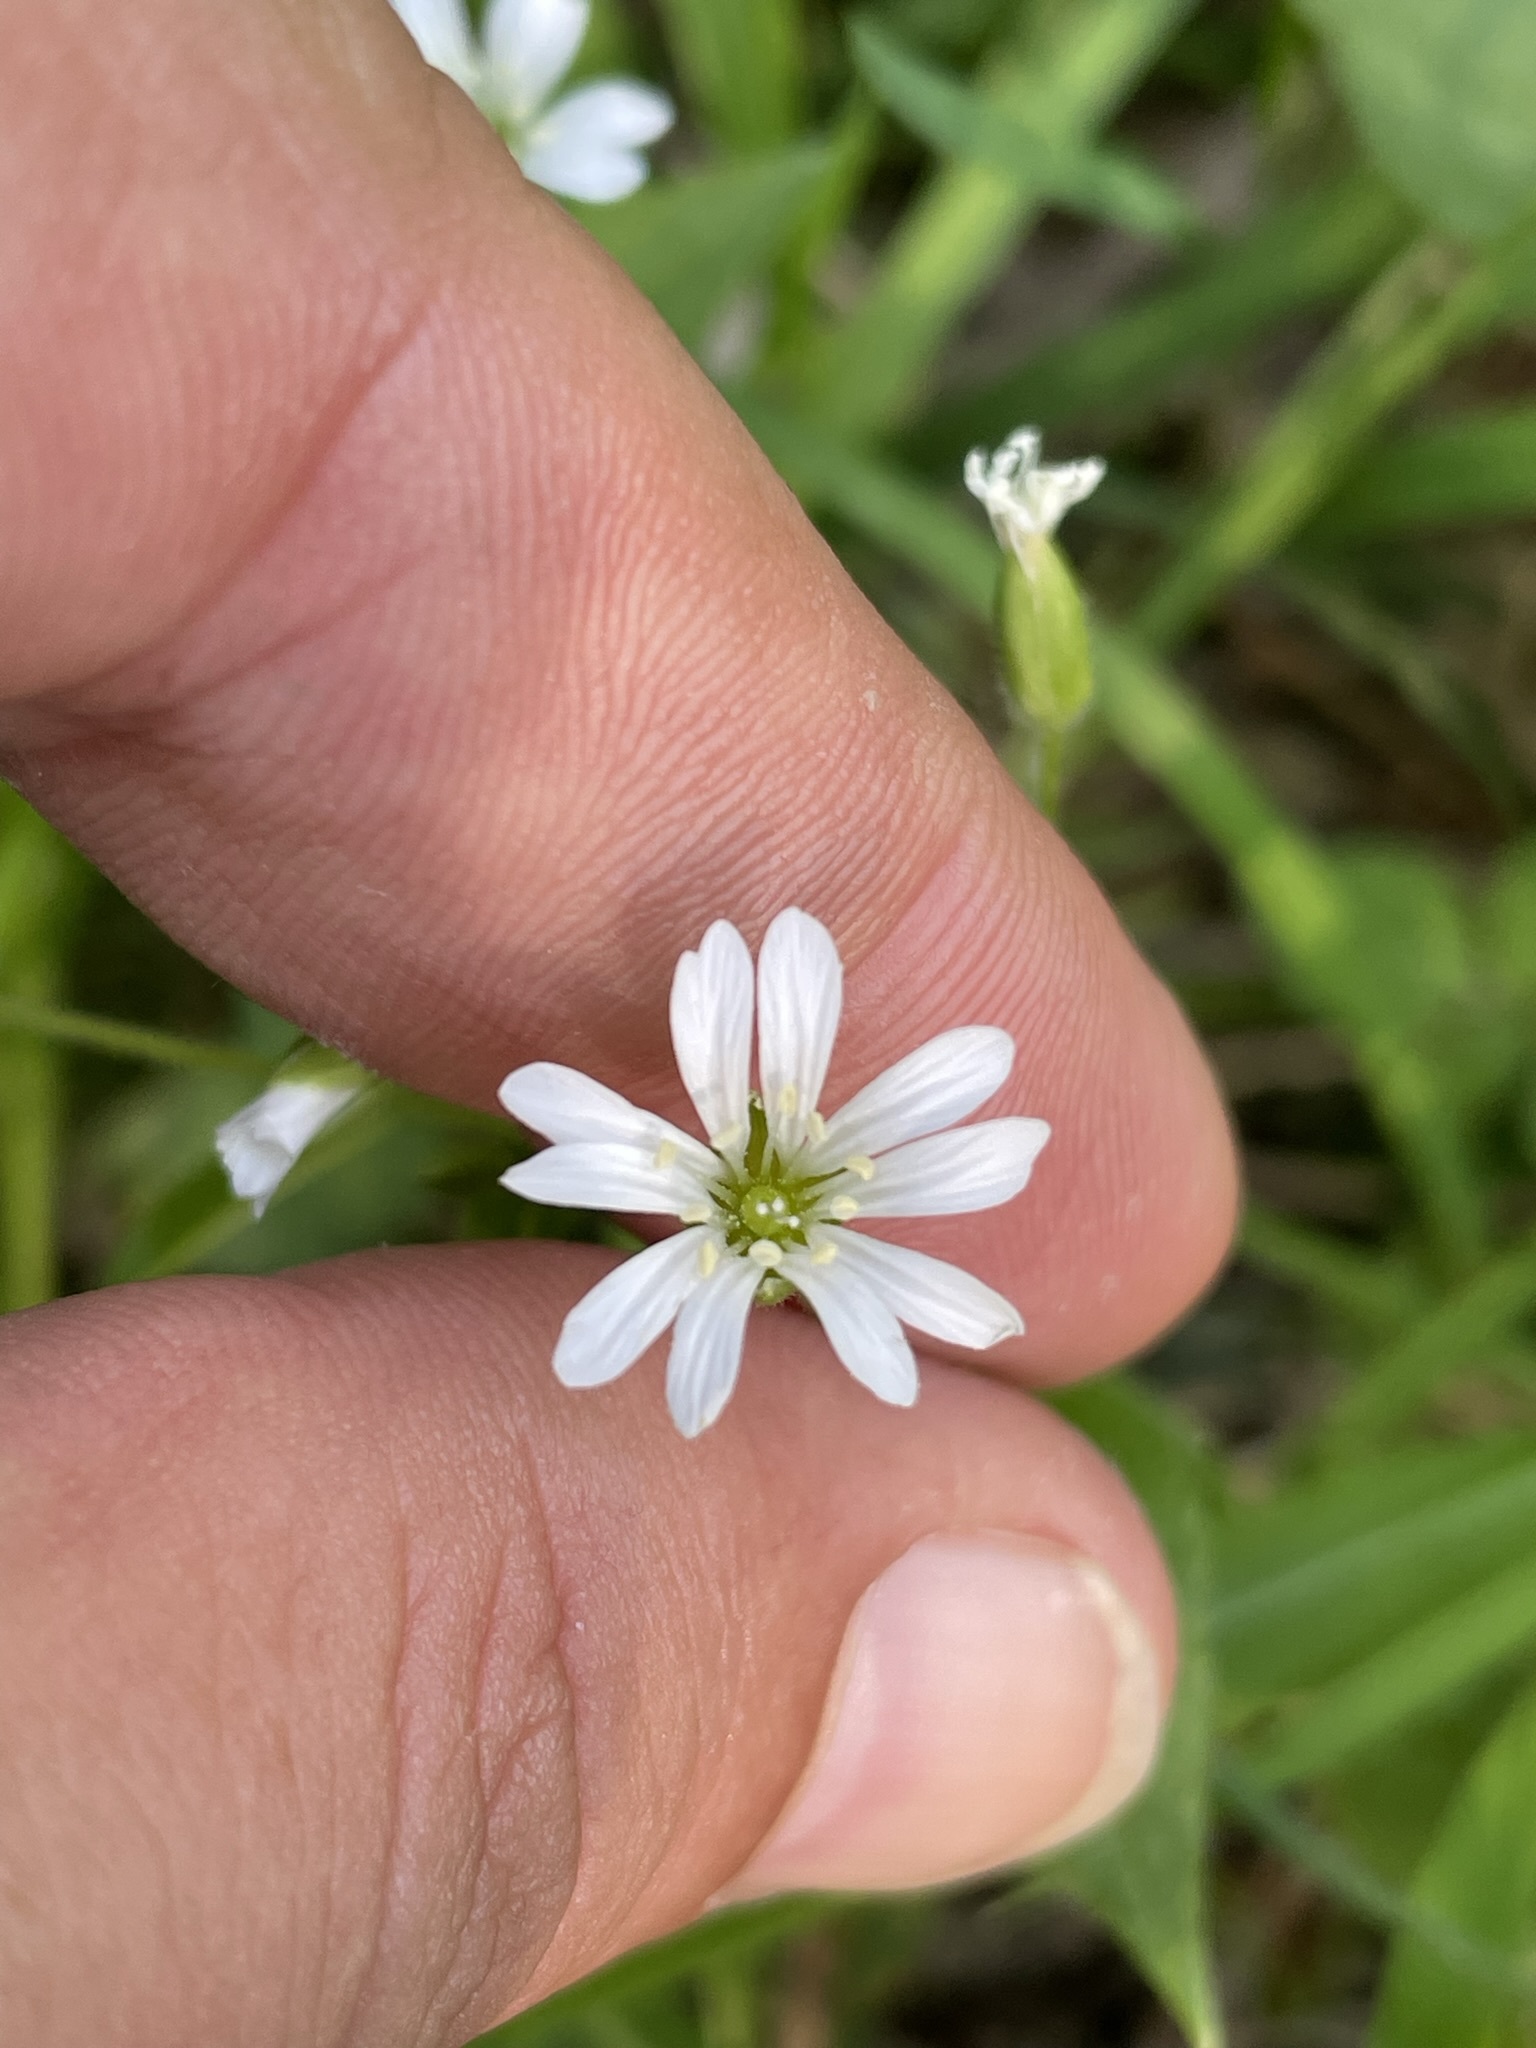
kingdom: Plantae
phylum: Tracheophyta
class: Magnoliopsida
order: Caryophyllales
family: Caryophyllaceae
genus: Stellaria
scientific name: Stellaria nemorum
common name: Wood stitchwort
